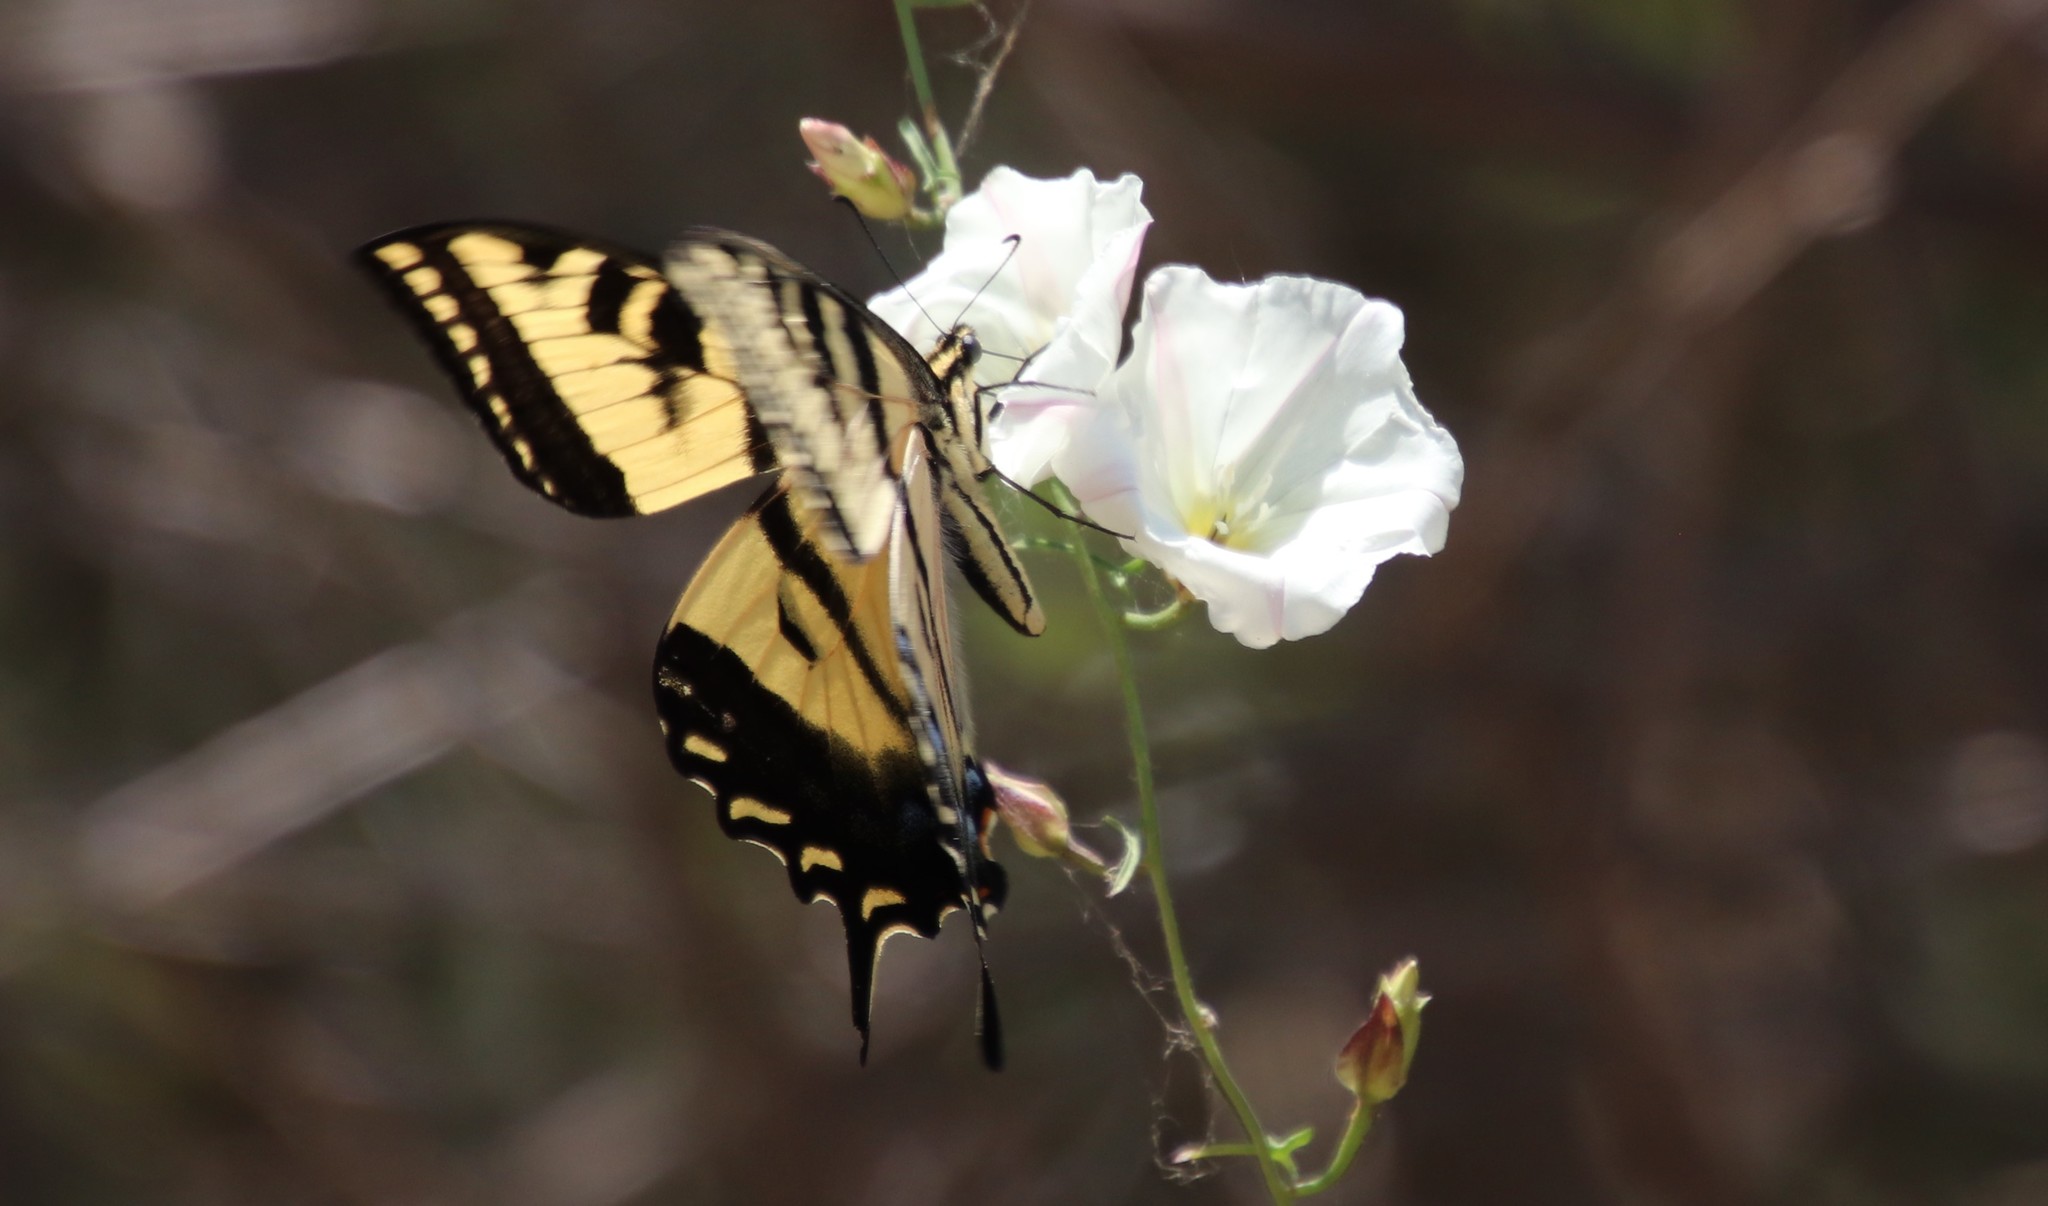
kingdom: Animalia
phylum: Arthropoda
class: Insecta
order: Lepidoptera
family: Papilionidae
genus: Papilio
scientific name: Papilio rutulus
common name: Western tiger swallowtail
